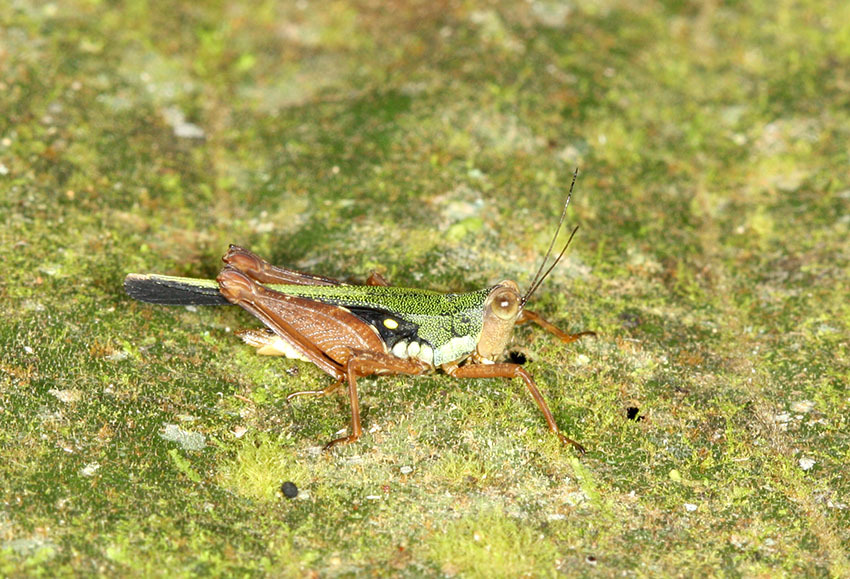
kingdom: Animalia
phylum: Arthropoda
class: Insecta
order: Orthoptera
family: Tetrigidae
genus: Scaria
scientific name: Scaria hamata
